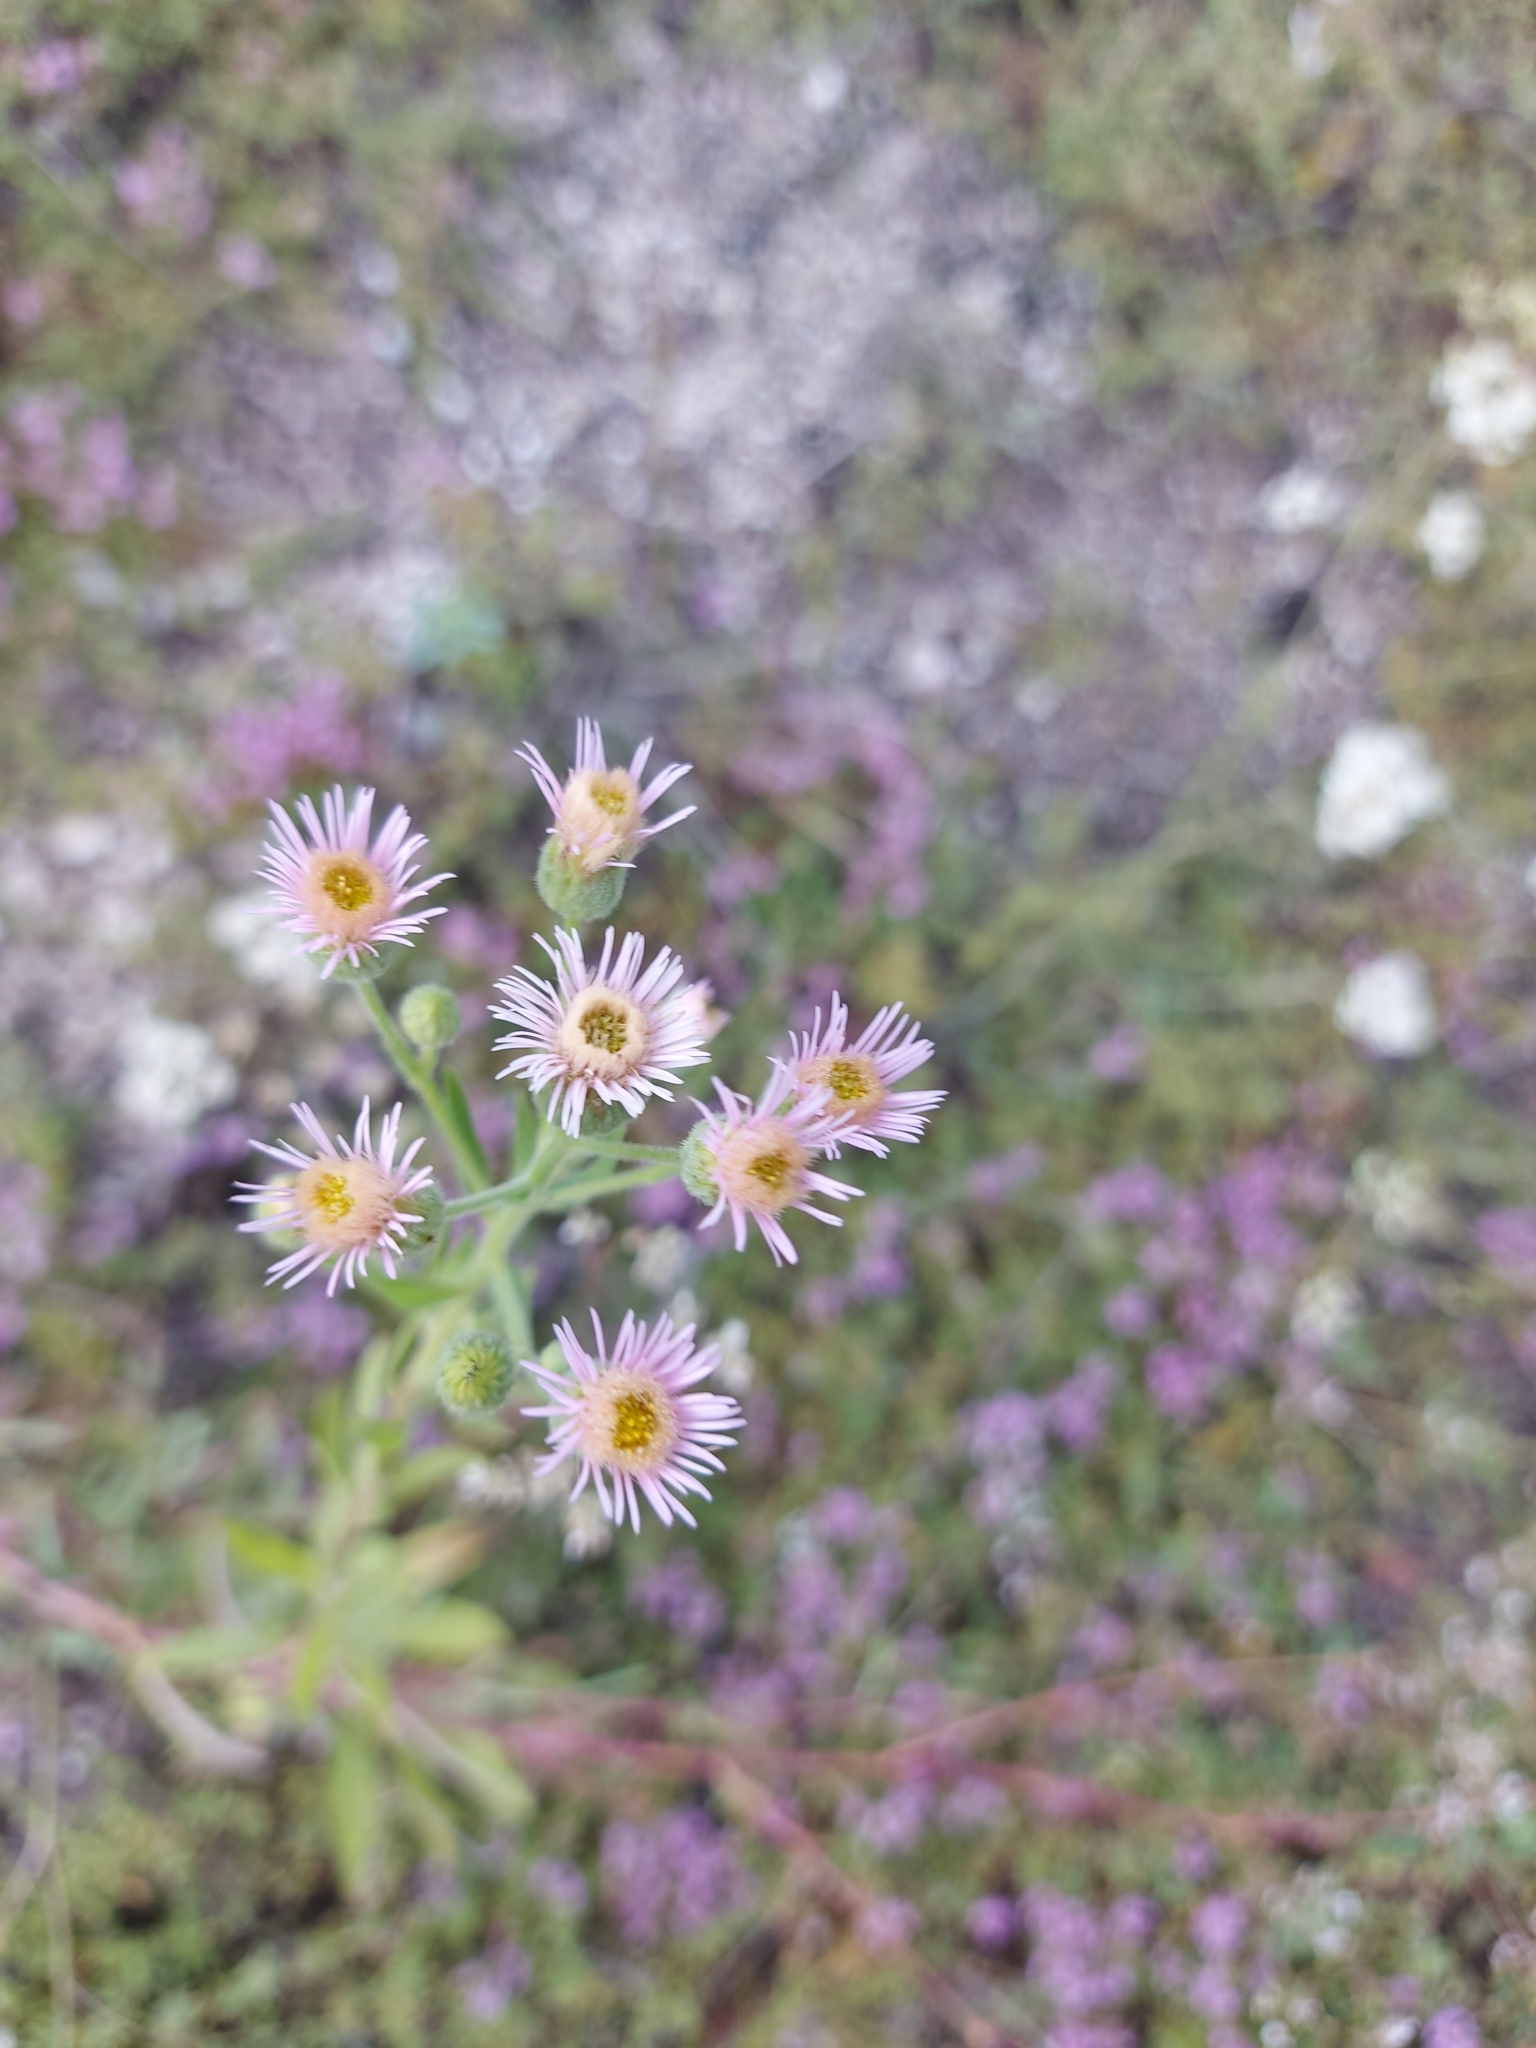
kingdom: Plantae
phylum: Tracheophyta
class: Magnoliopsida
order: Asterales
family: Asteraceae
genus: Erigeron
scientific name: Erigeron acris
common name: Blue fleabane
